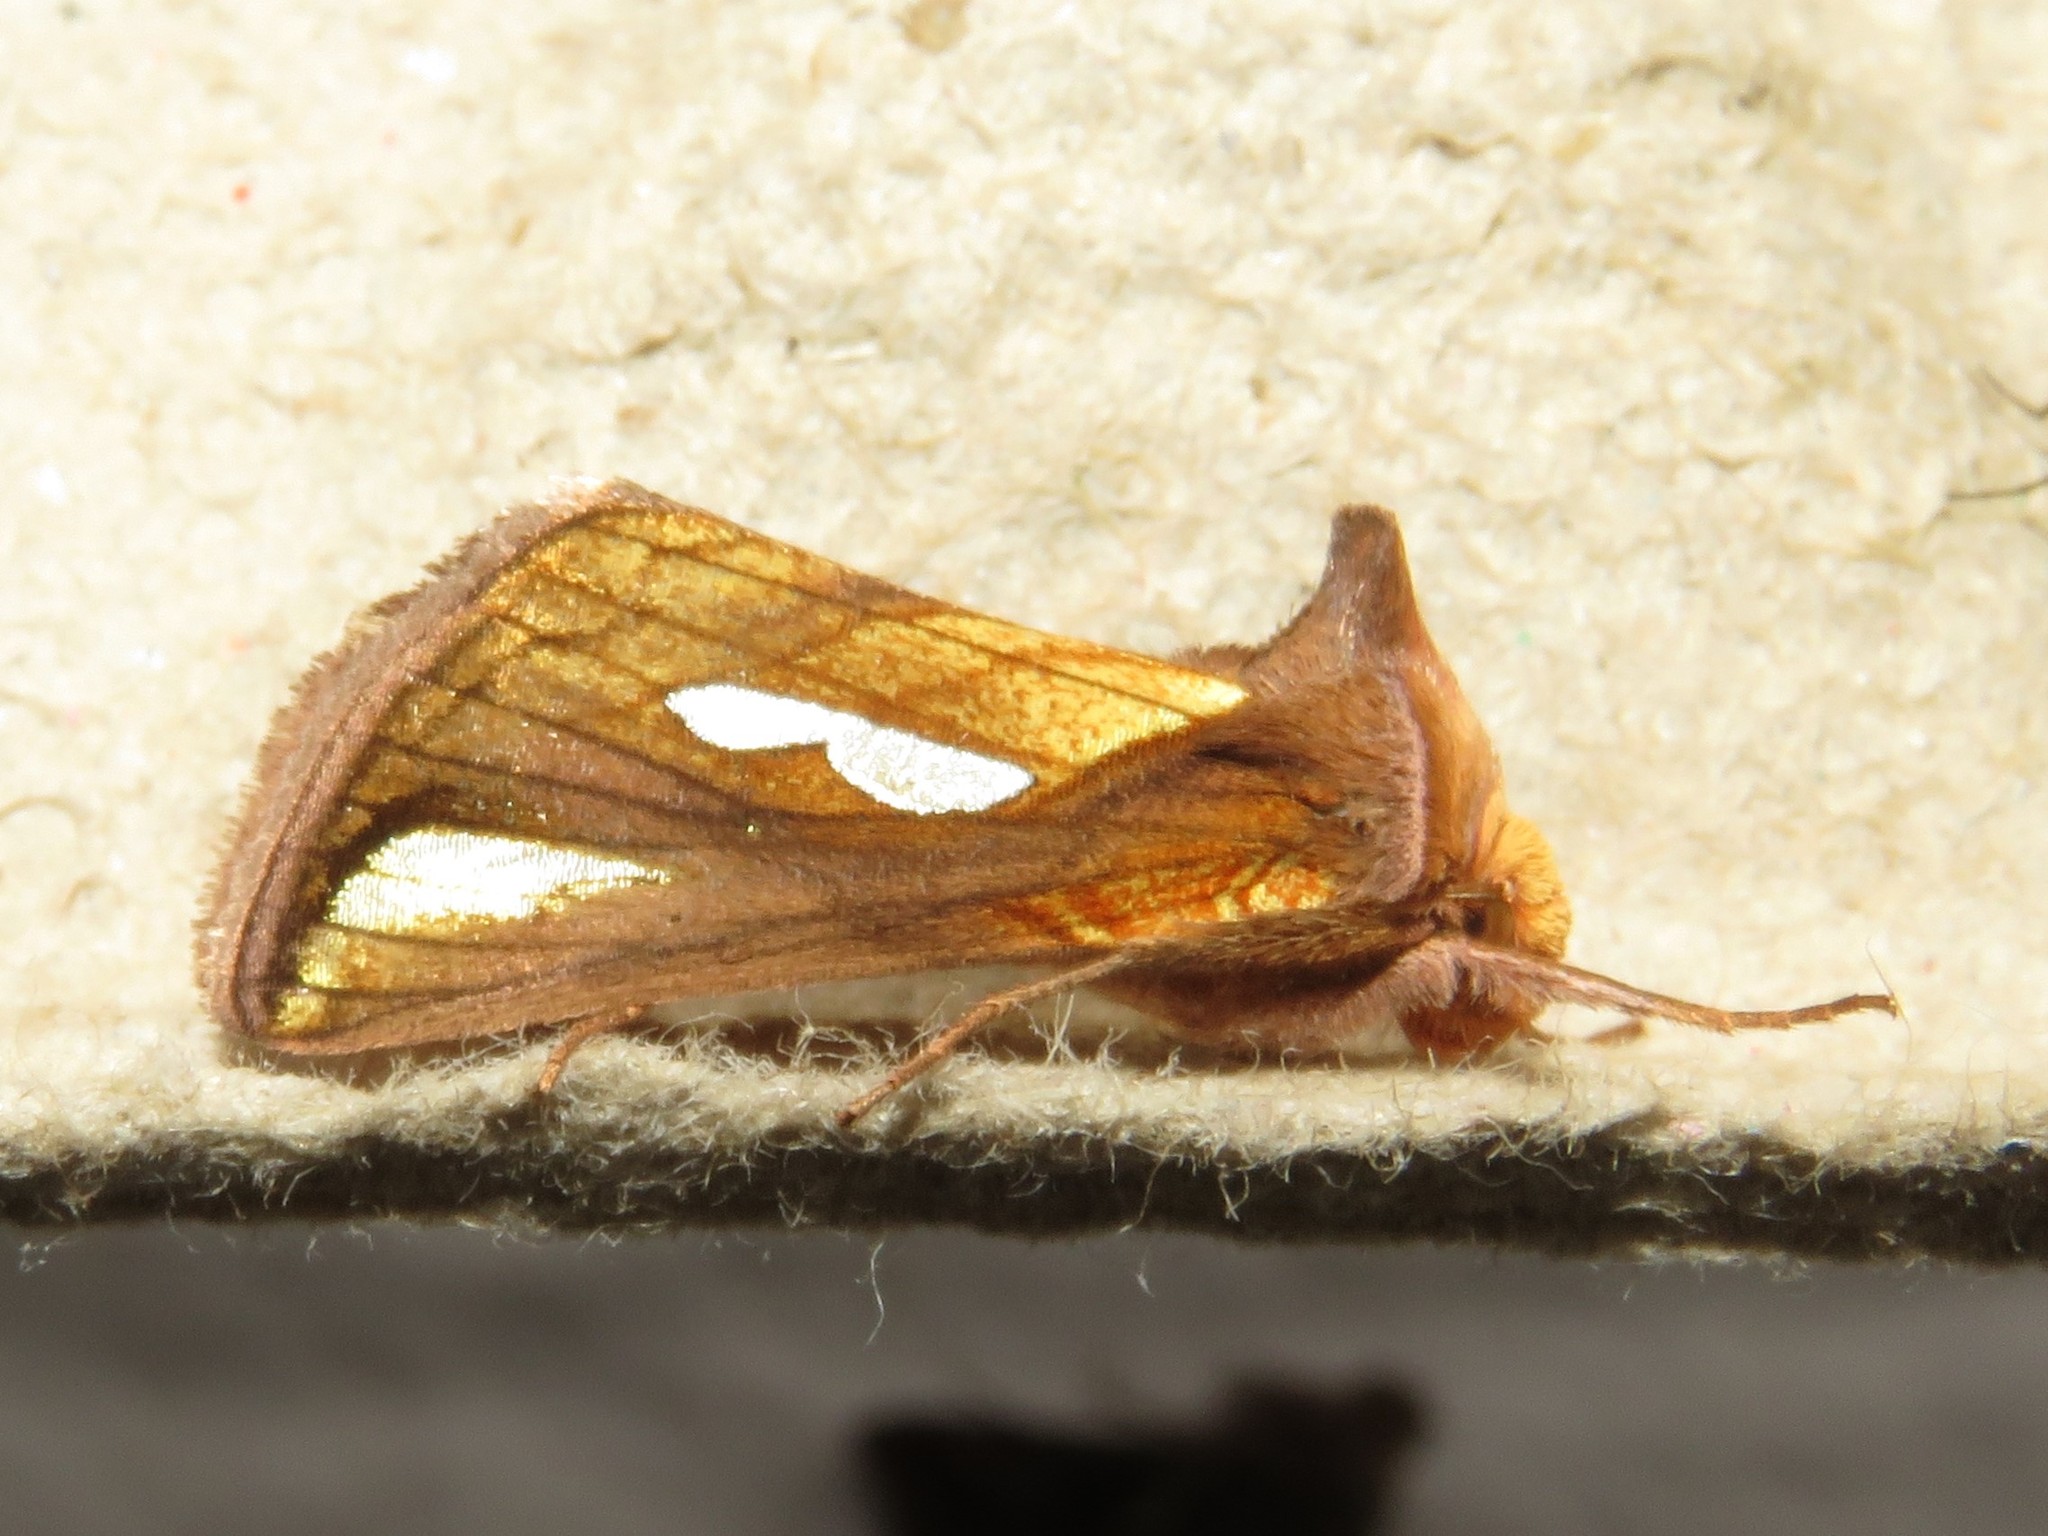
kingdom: Animalia
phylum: Arthropoda
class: Insecta
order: Lepidoptera
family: Noctuidae
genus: Plusia
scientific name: Plusia contexta
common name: Connected looper moth
